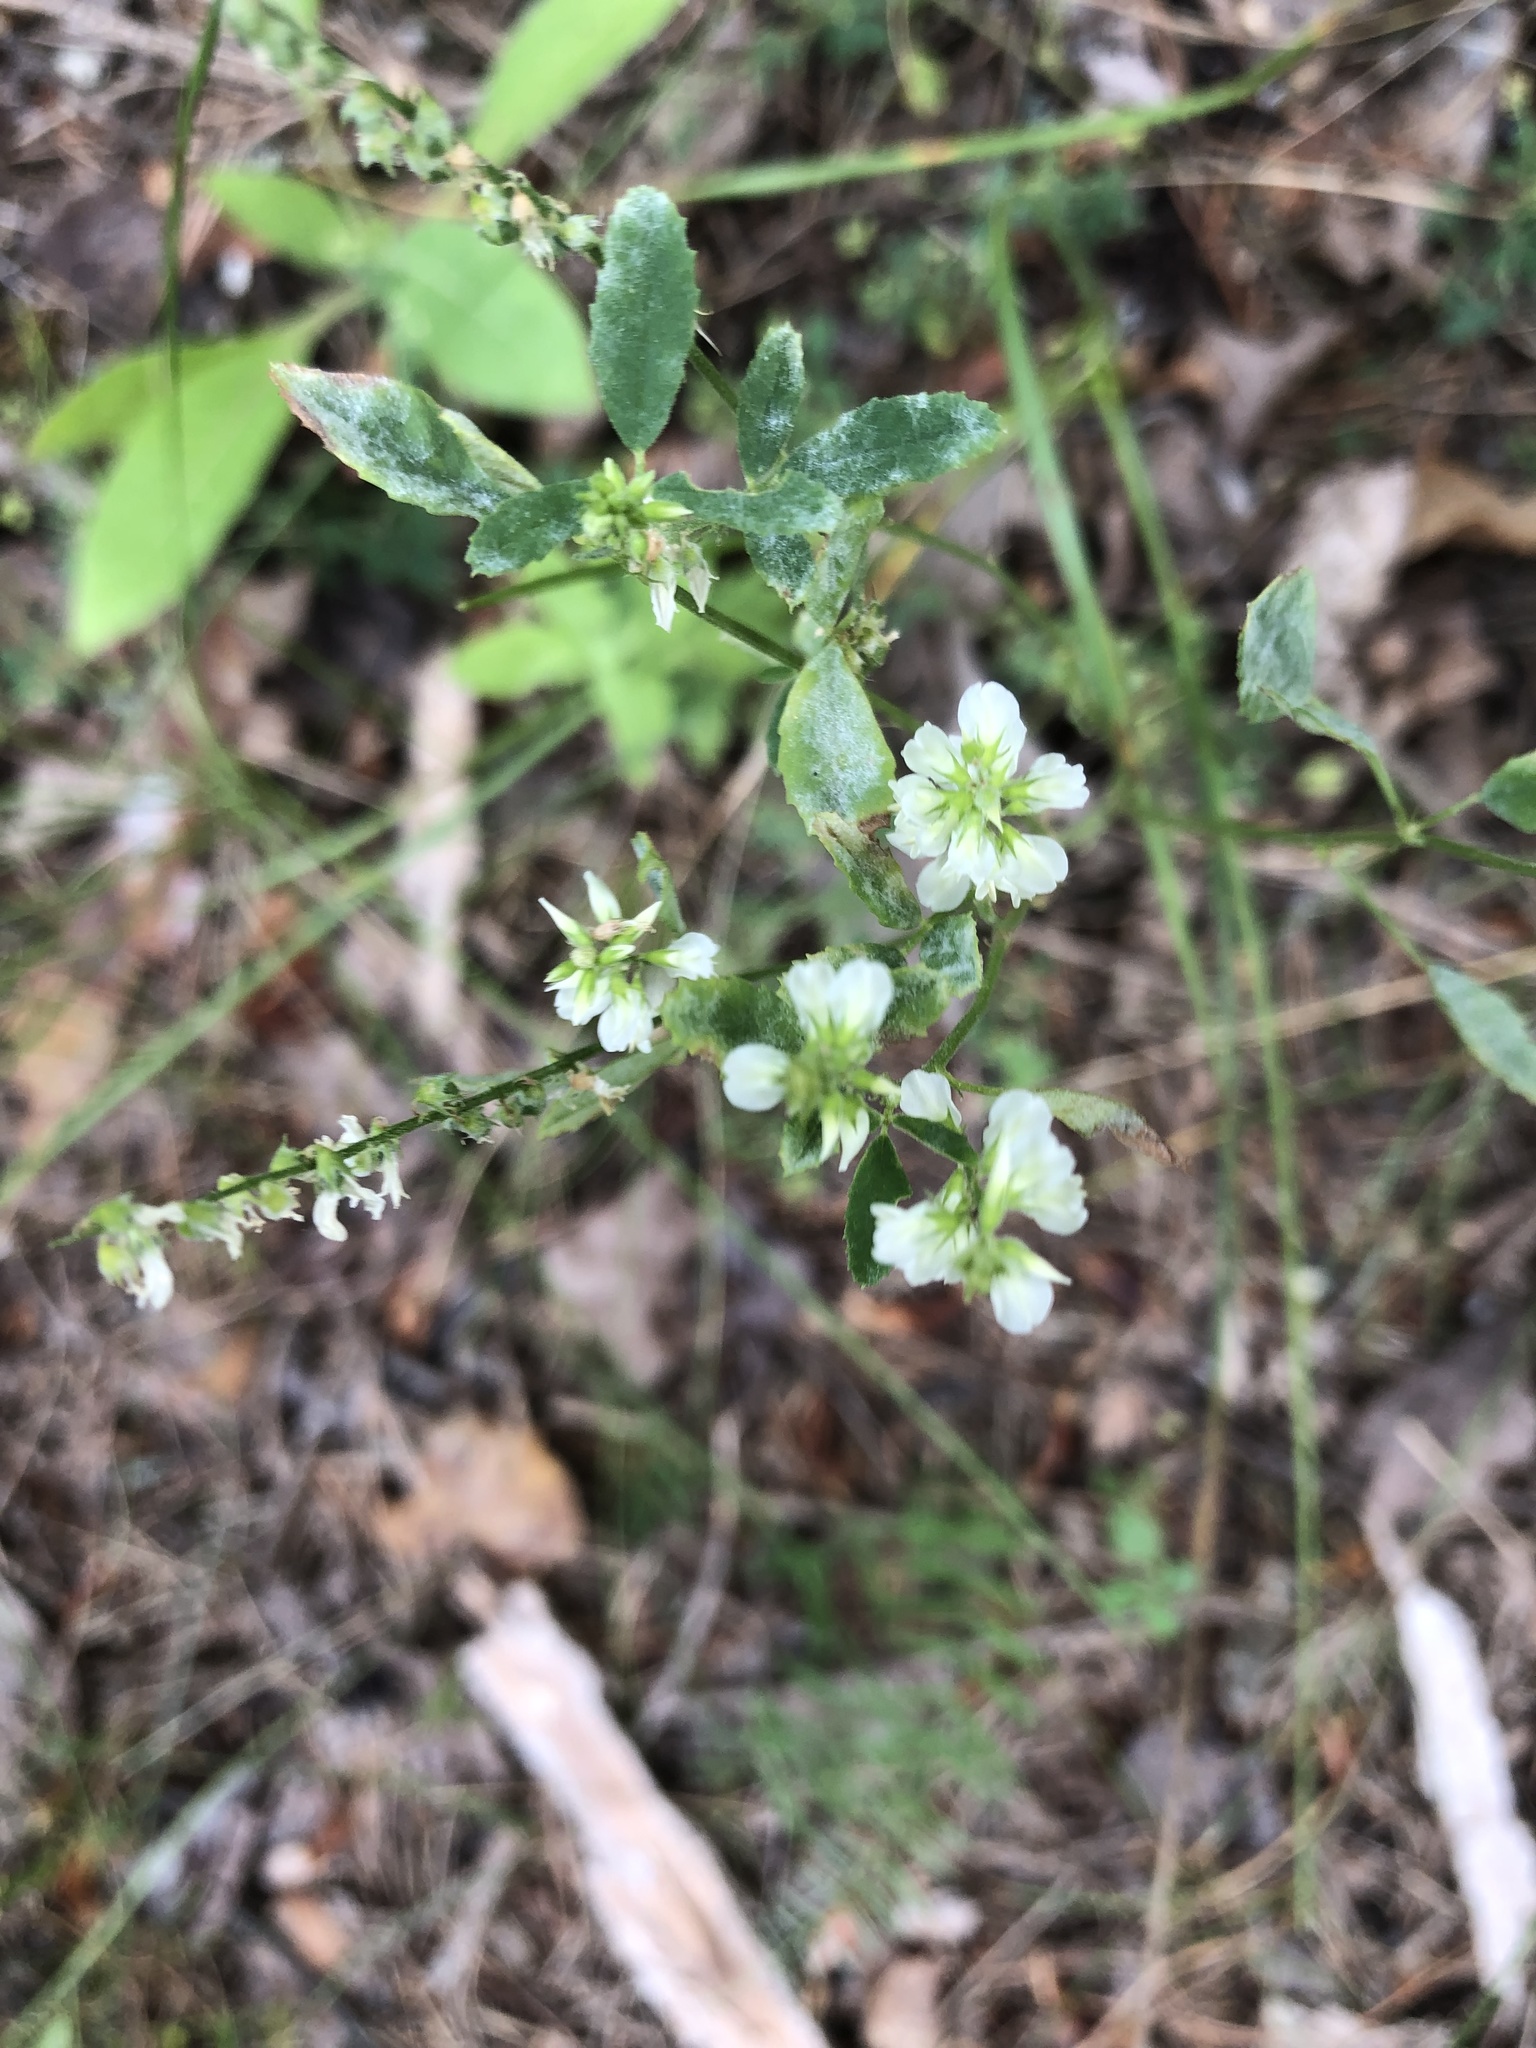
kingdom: Plantae
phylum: Tracheophyta
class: Magnoliopsida
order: Fabales
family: Fabaceae
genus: Melilotus
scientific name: Melilotus albus
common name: White melilot
